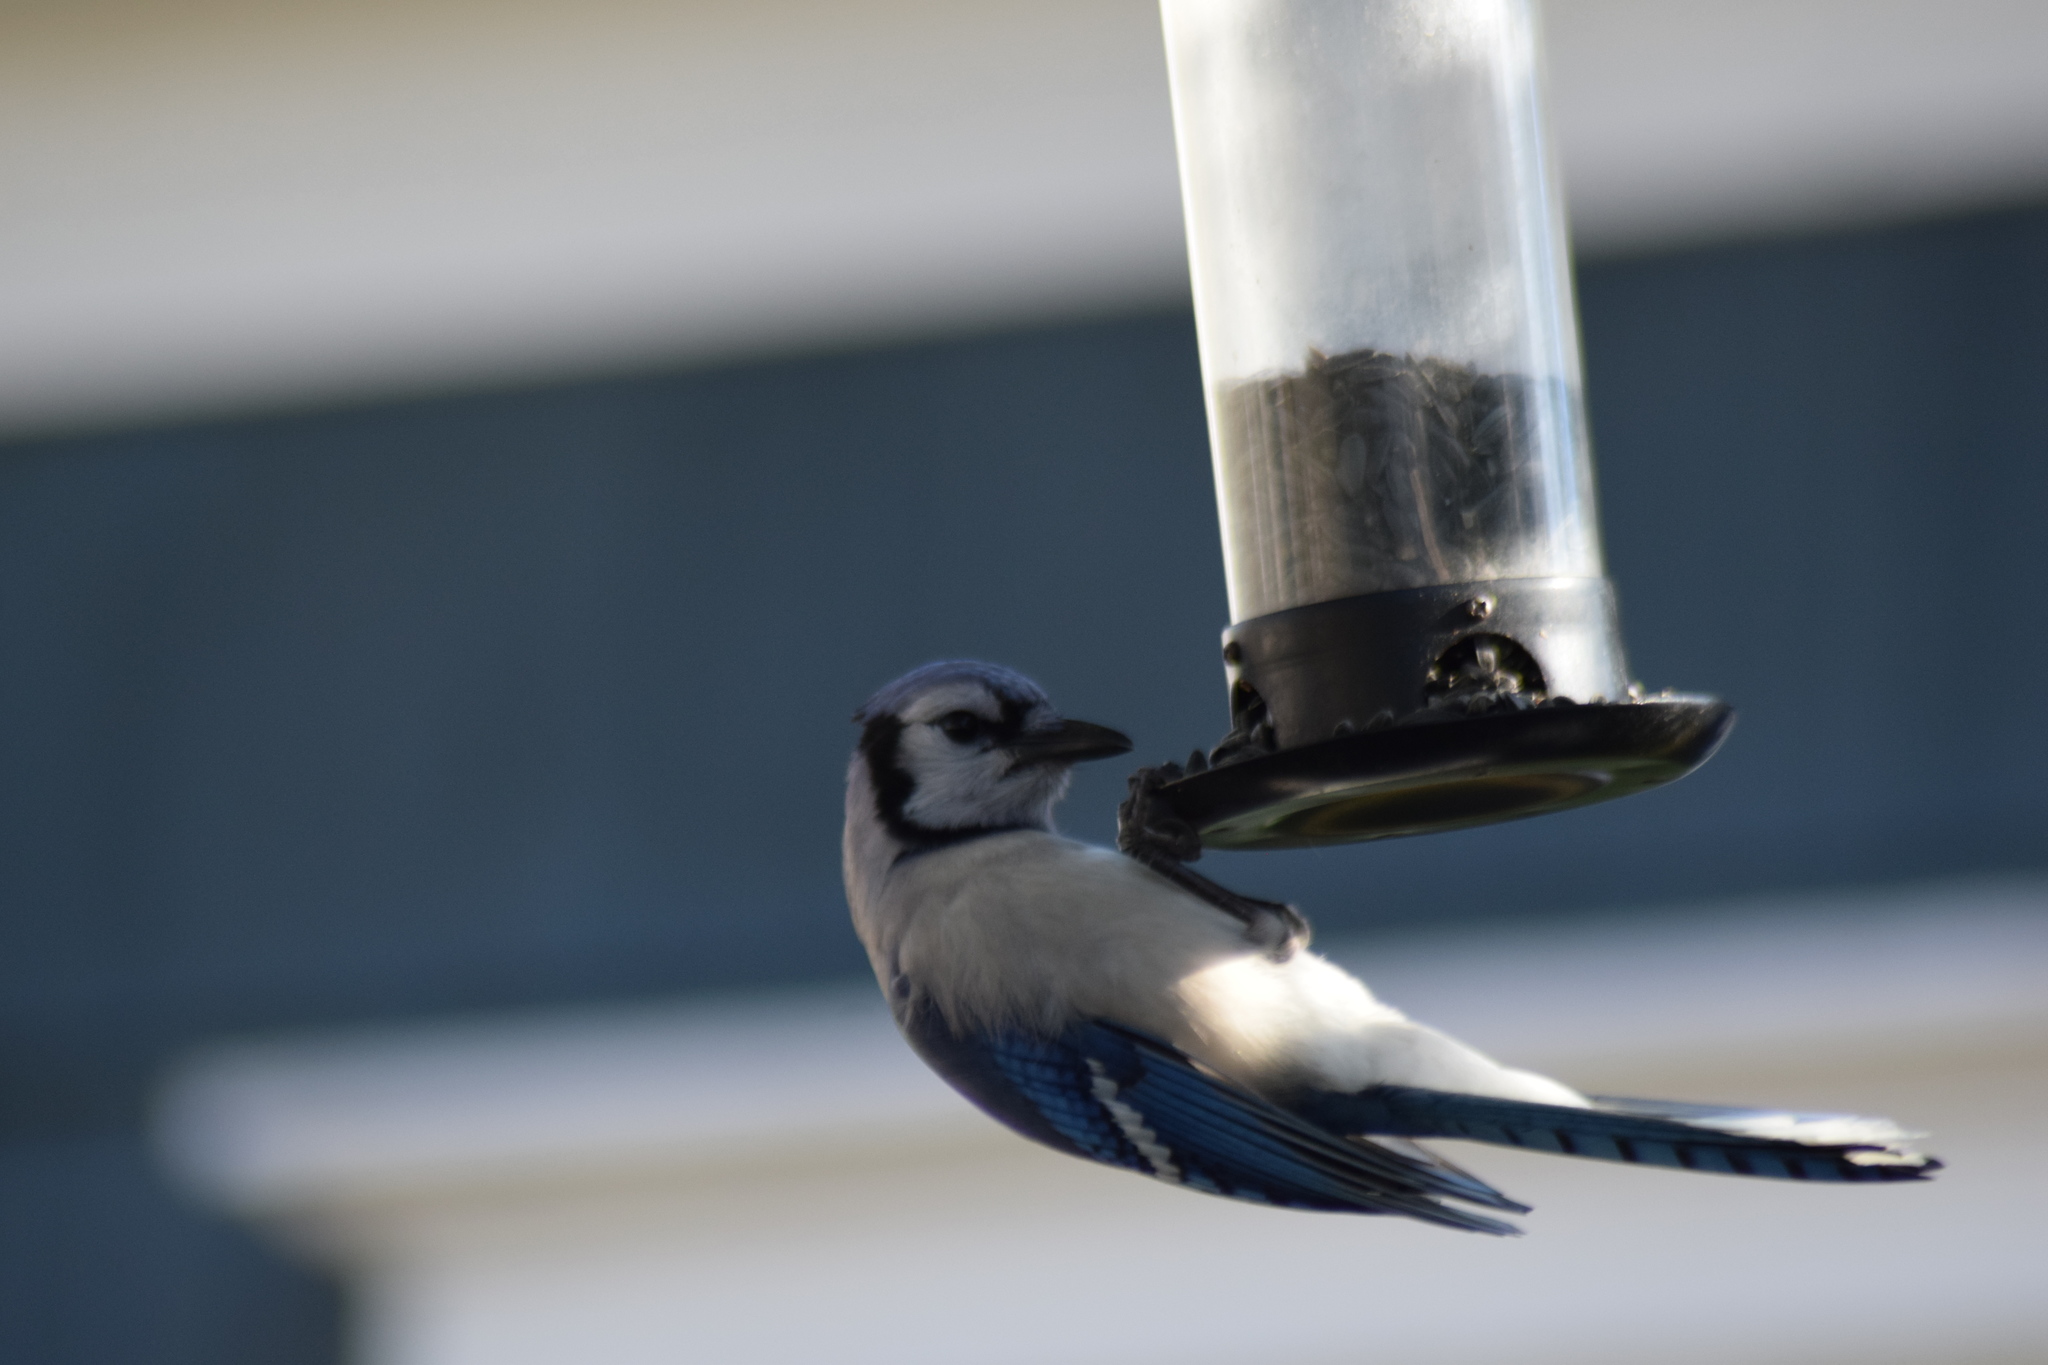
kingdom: Animalia
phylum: Chordata
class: Aves
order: Passeriformes
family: Corvidae
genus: Cyanocitta
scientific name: Cyanocitta cristata
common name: Blue jay
